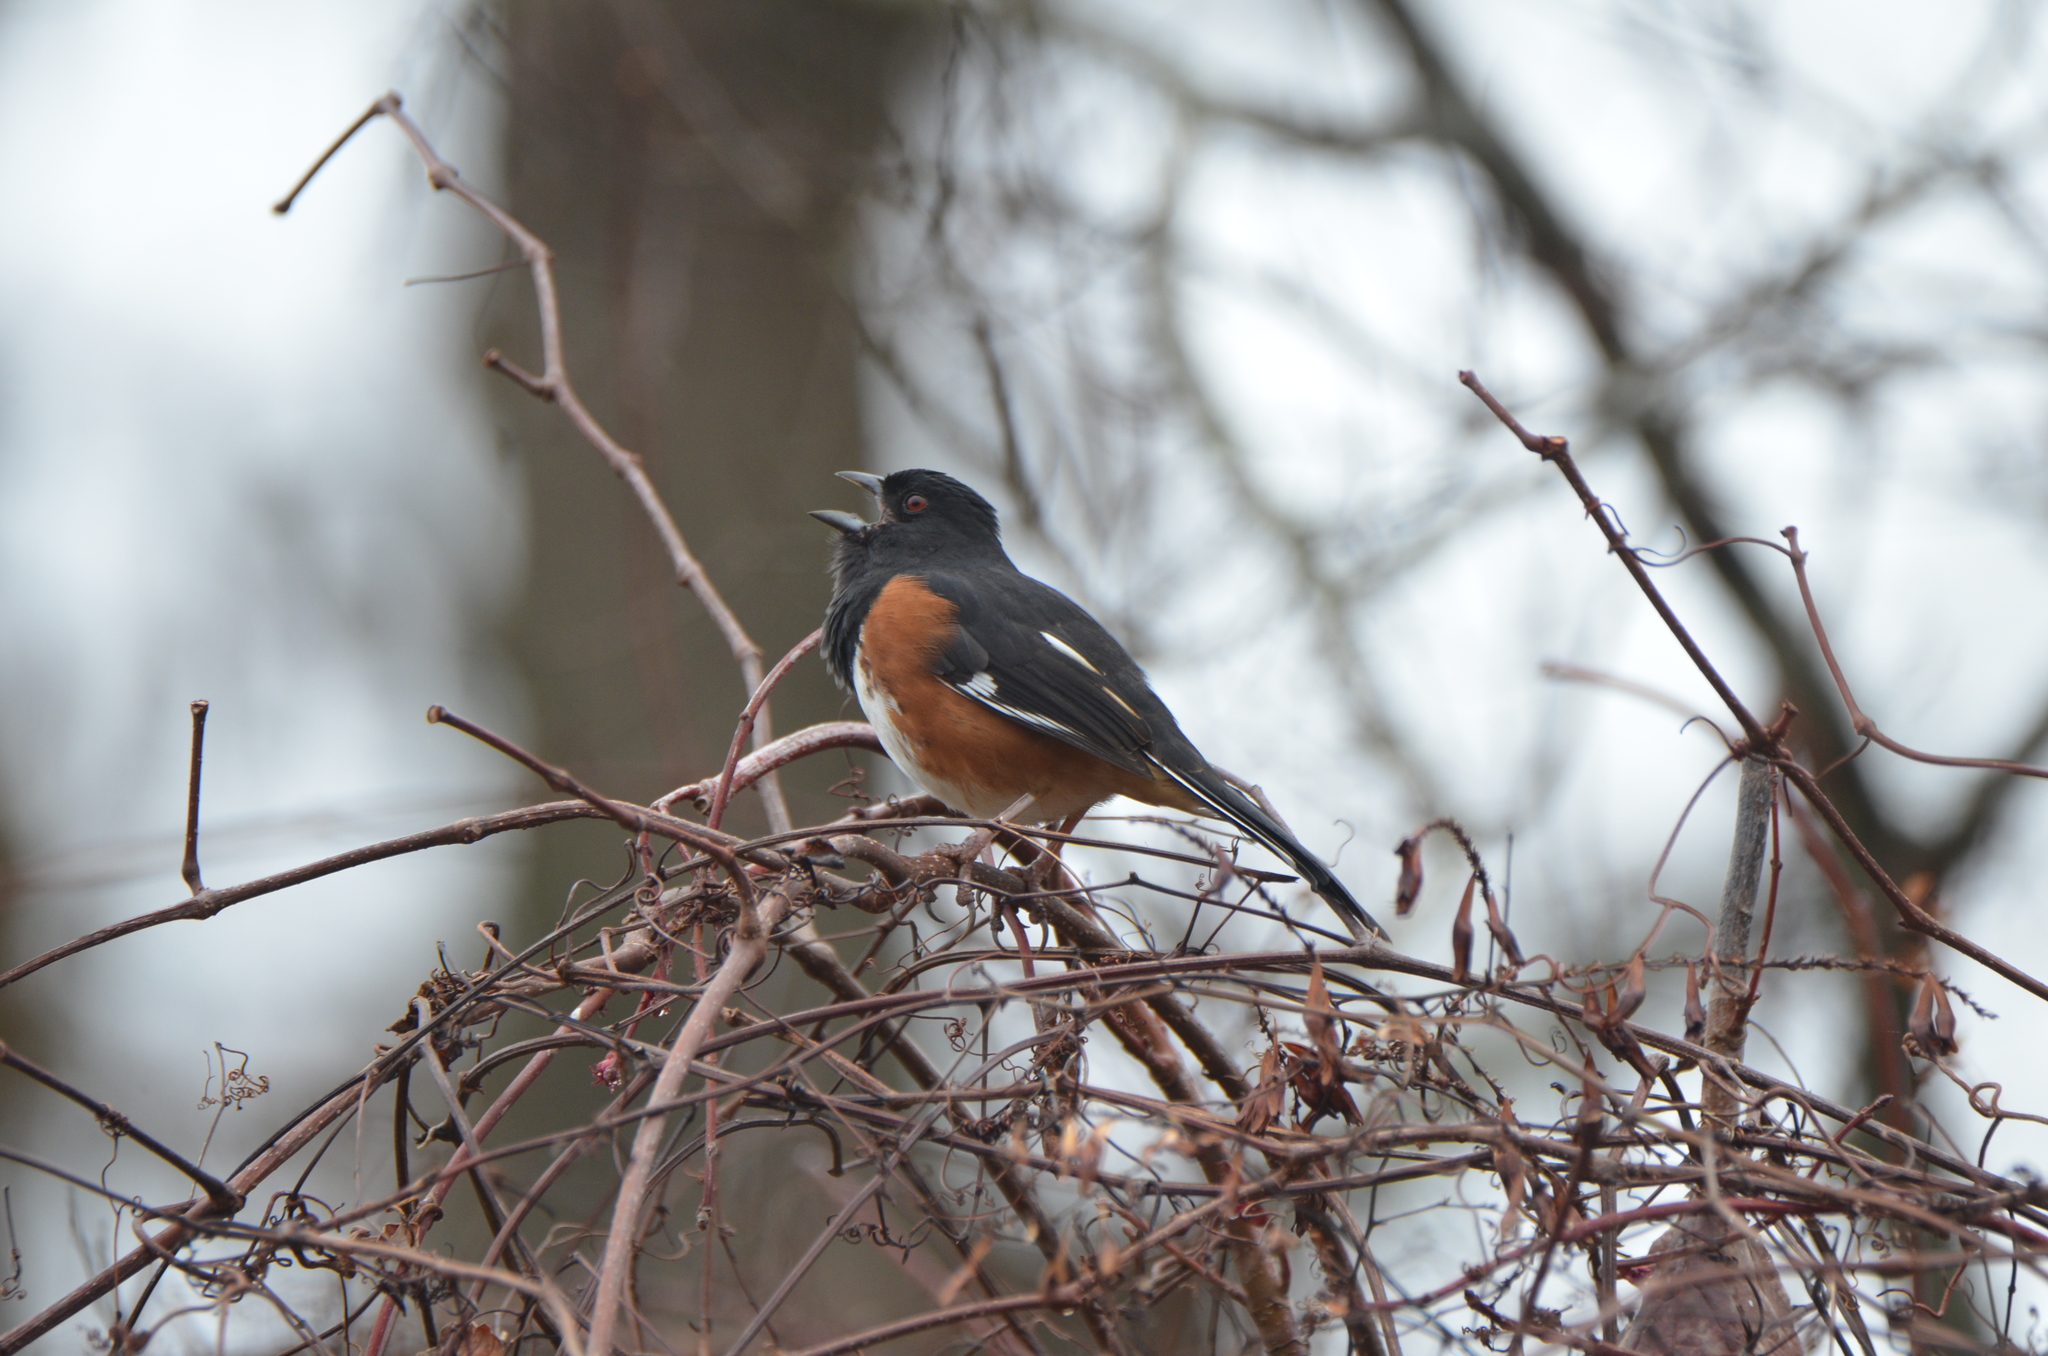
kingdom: Animalia
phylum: Chordata
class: Aves
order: Passeriformes
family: Passerellidae
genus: Pipilo
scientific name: Pipilo erythrophthalmus
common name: Eastern towhee
